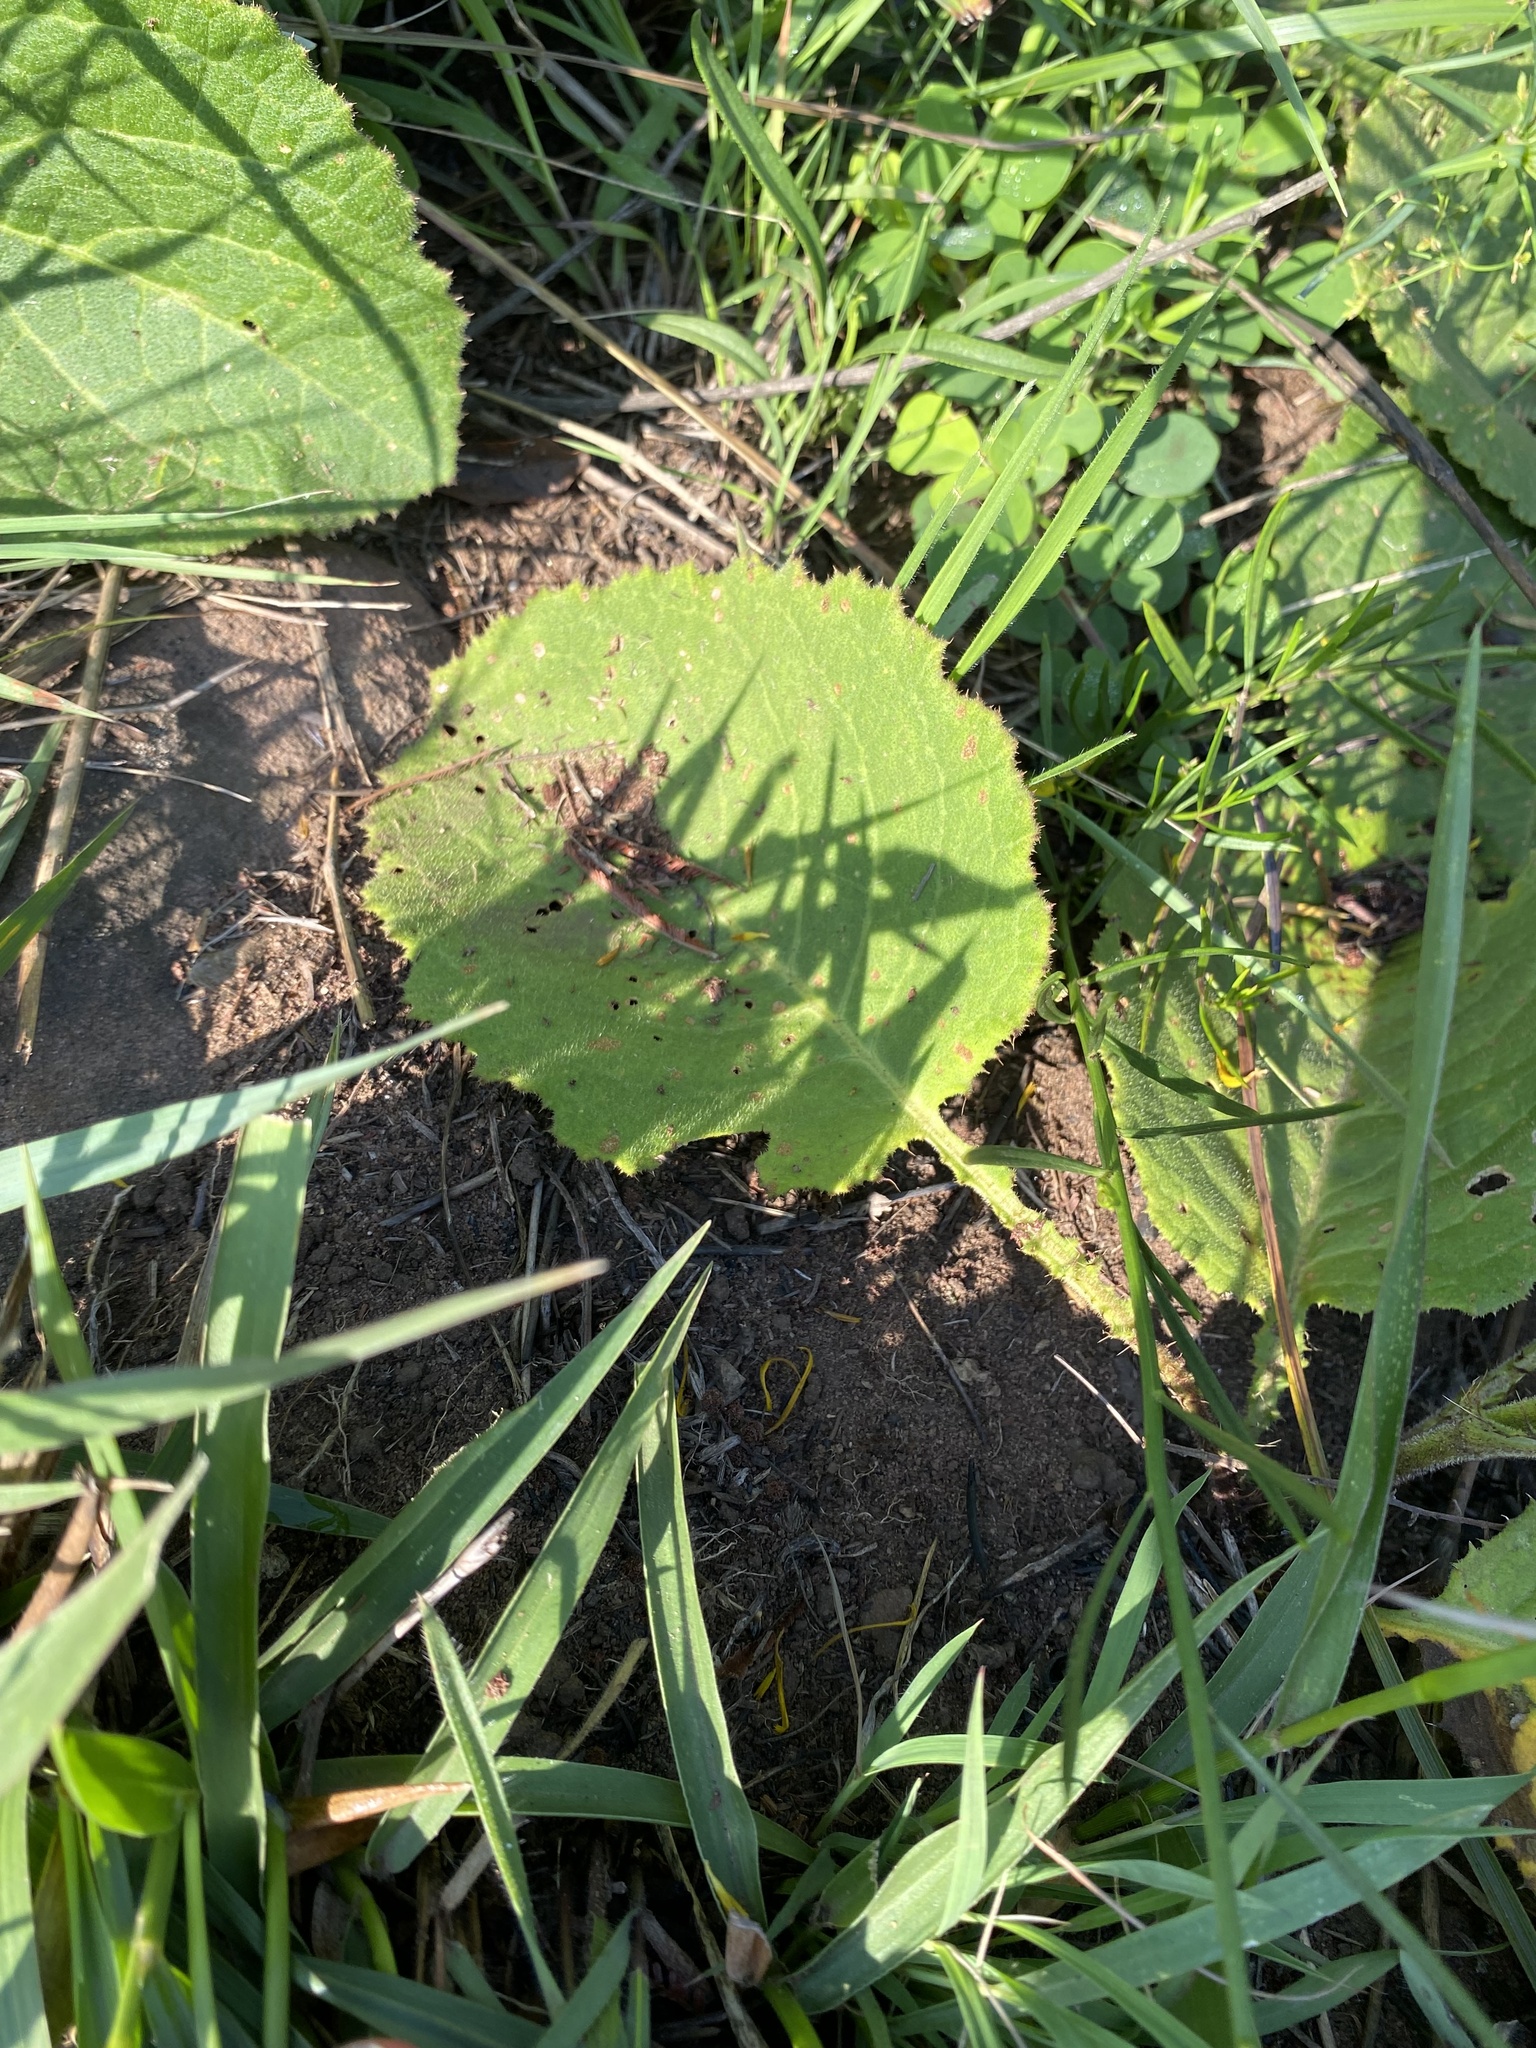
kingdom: Plantae
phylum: Tracheophyta
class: Magnoliopsida
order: Asterales
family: Asteraceae
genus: Berkheya
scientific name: Berkheya speciosa
